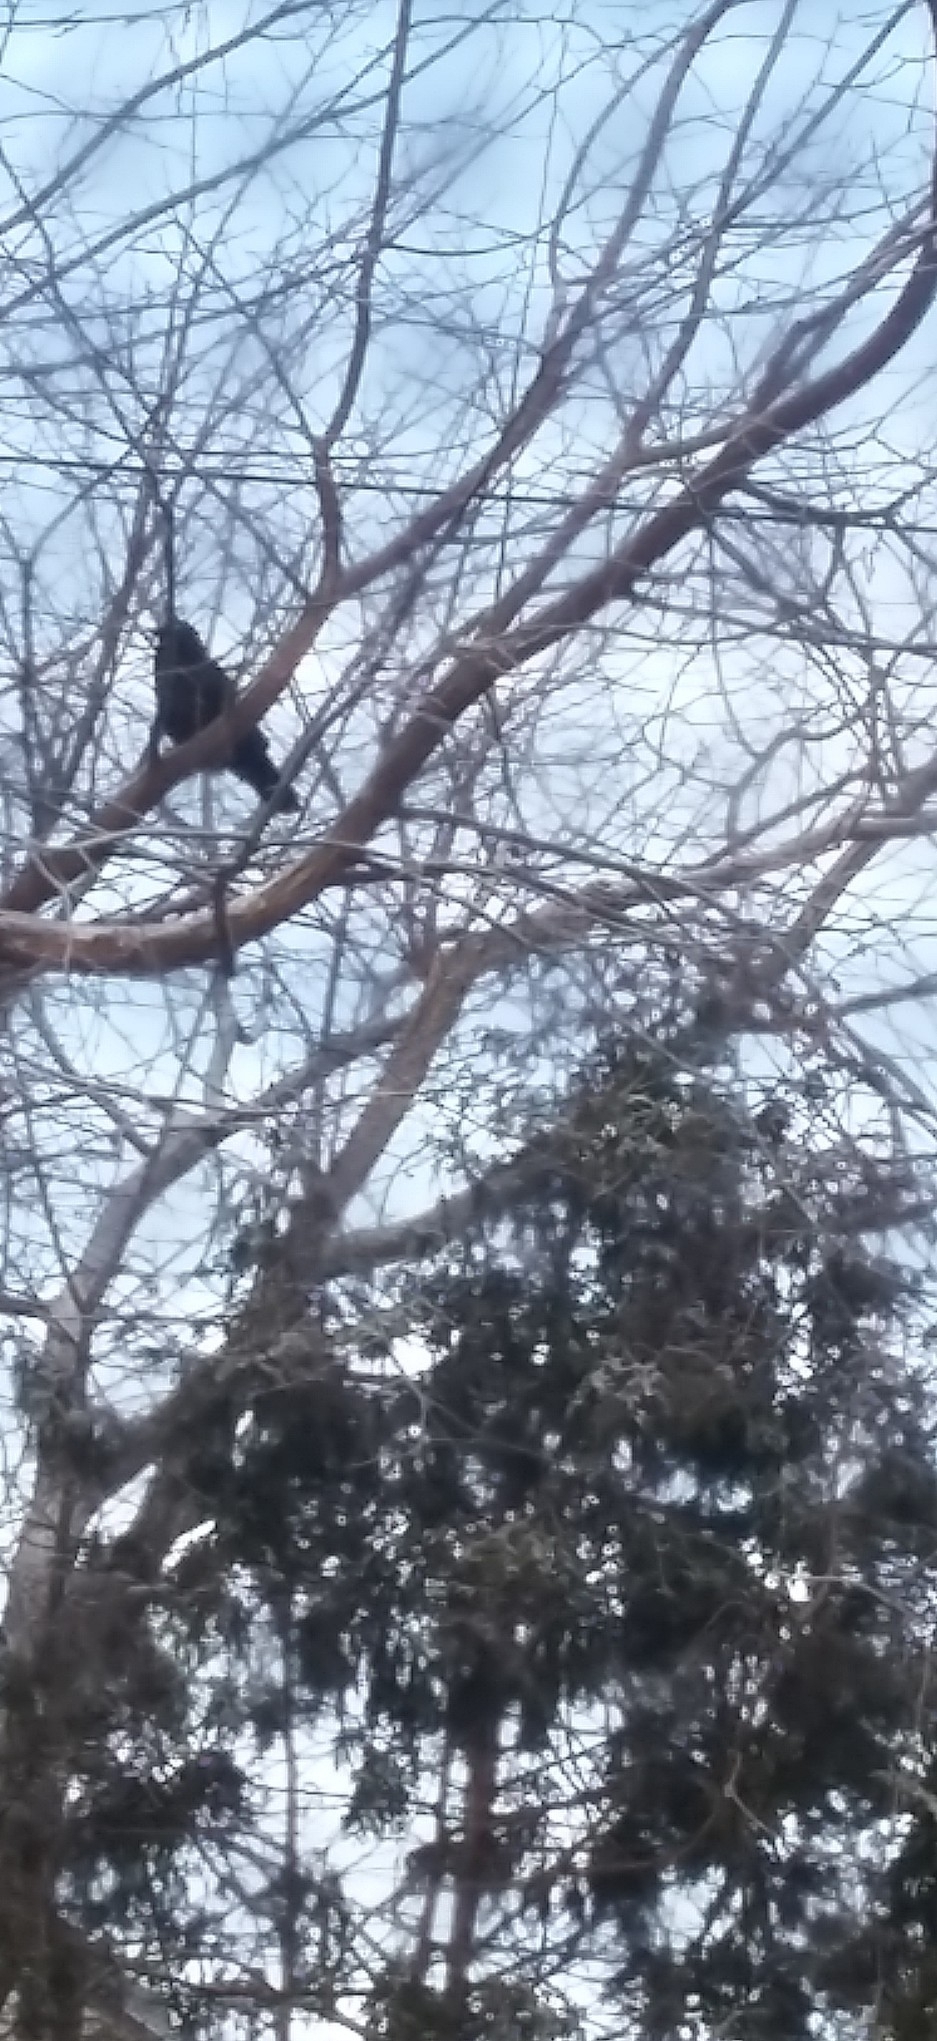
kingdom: Animalia
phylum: Chordata
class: Aves
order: Passeriformes
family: Corvidae
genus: Corvus
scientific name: Corvus brachyrhynchos
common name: American crow
